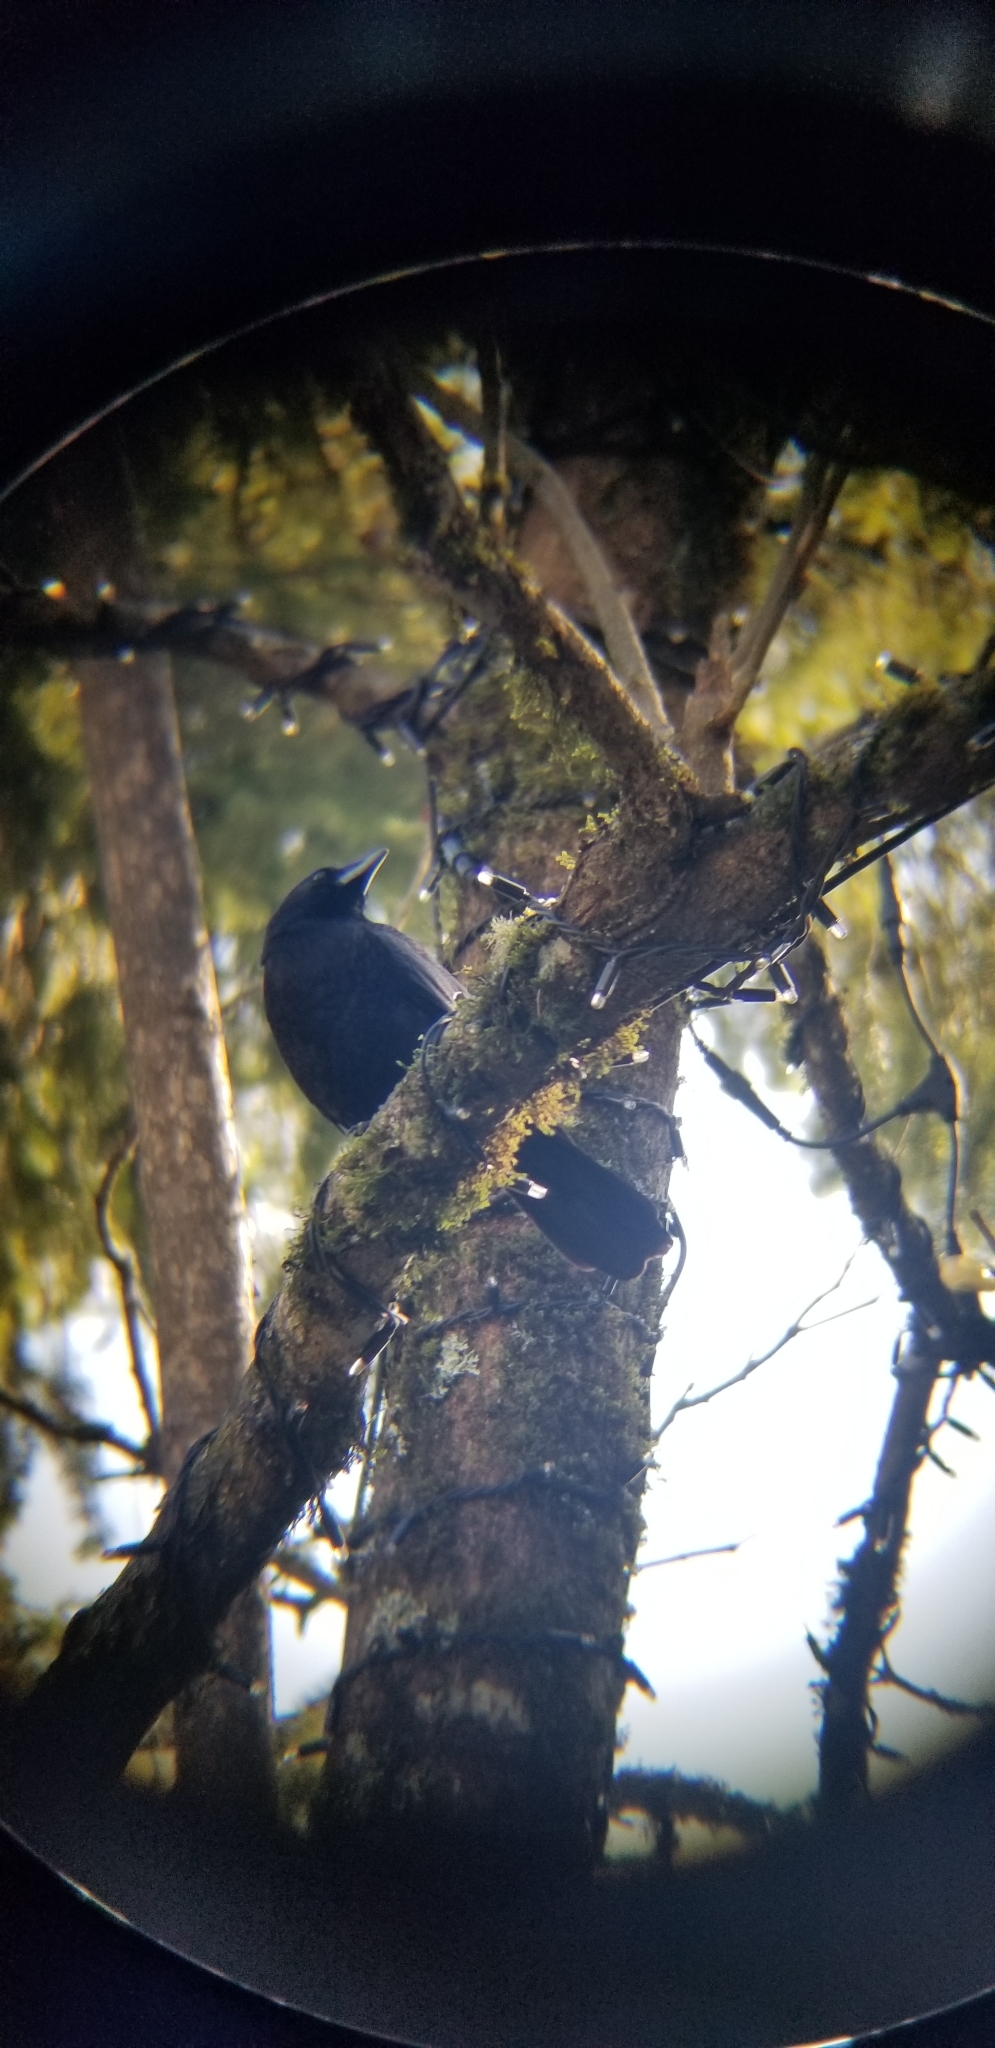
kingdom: Animalia
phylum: Chordata
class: Aves
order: Passeriformes
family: Corvidae
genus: Corvus
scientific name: Corvus brachyrhynchos
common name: American crow
